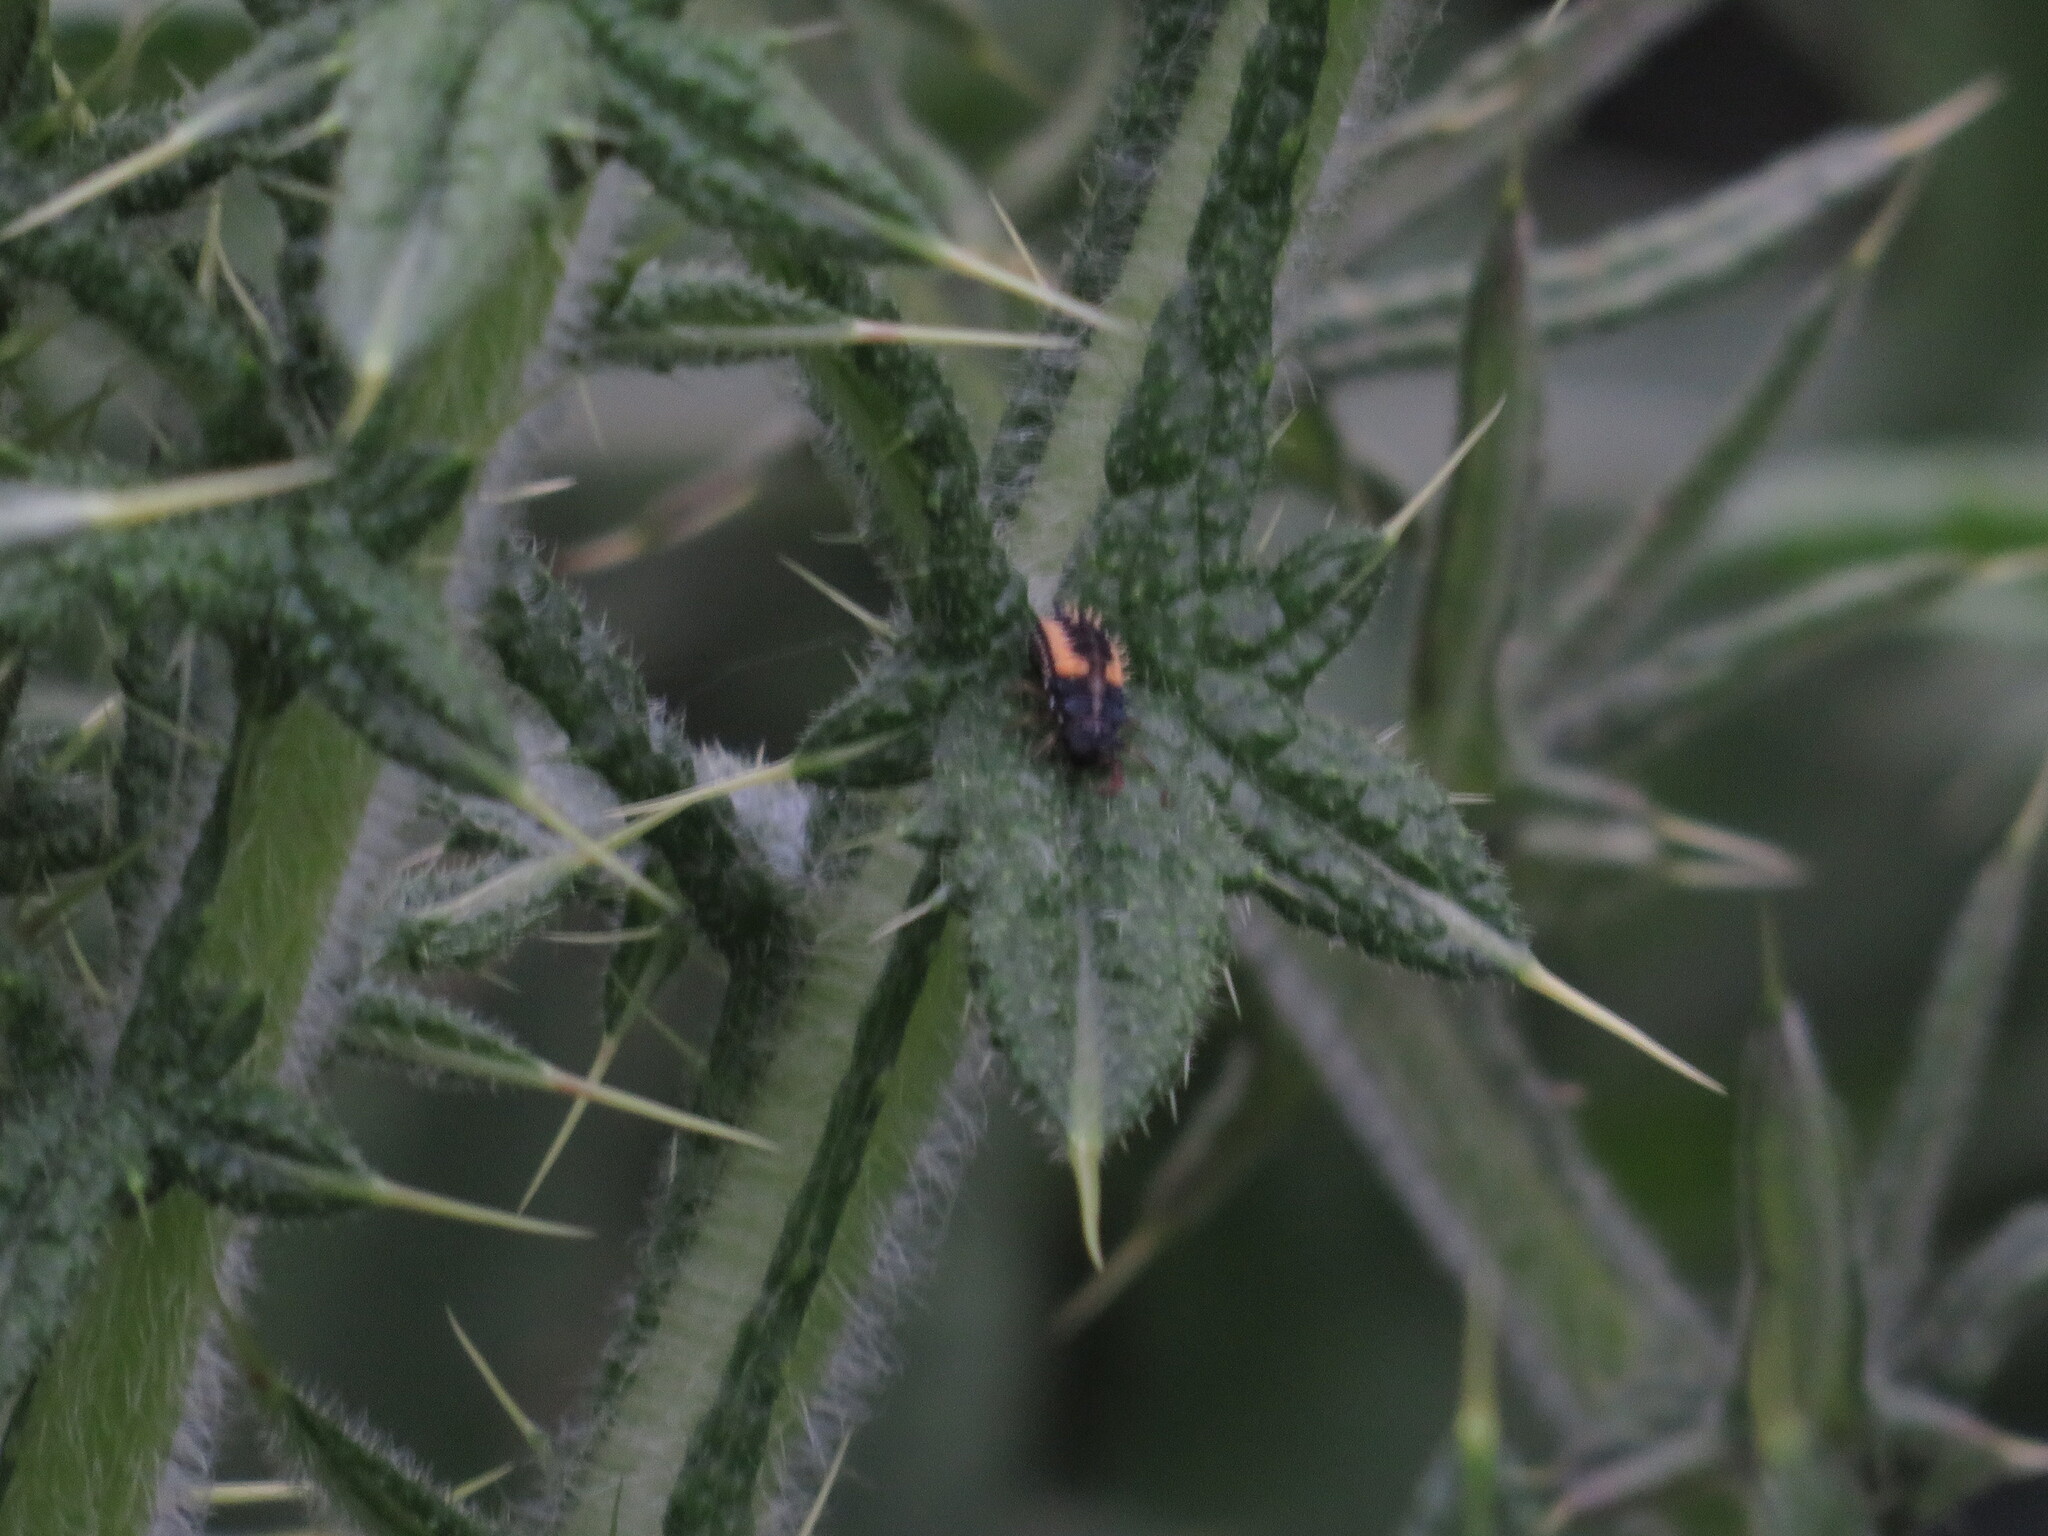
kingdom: Animalia
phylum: Arthropoda
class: Insecta
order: Coleoptera
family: Coccinellidae
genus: Harmonia
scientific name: Harmonia axyridis
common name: Harlequin ladybird
